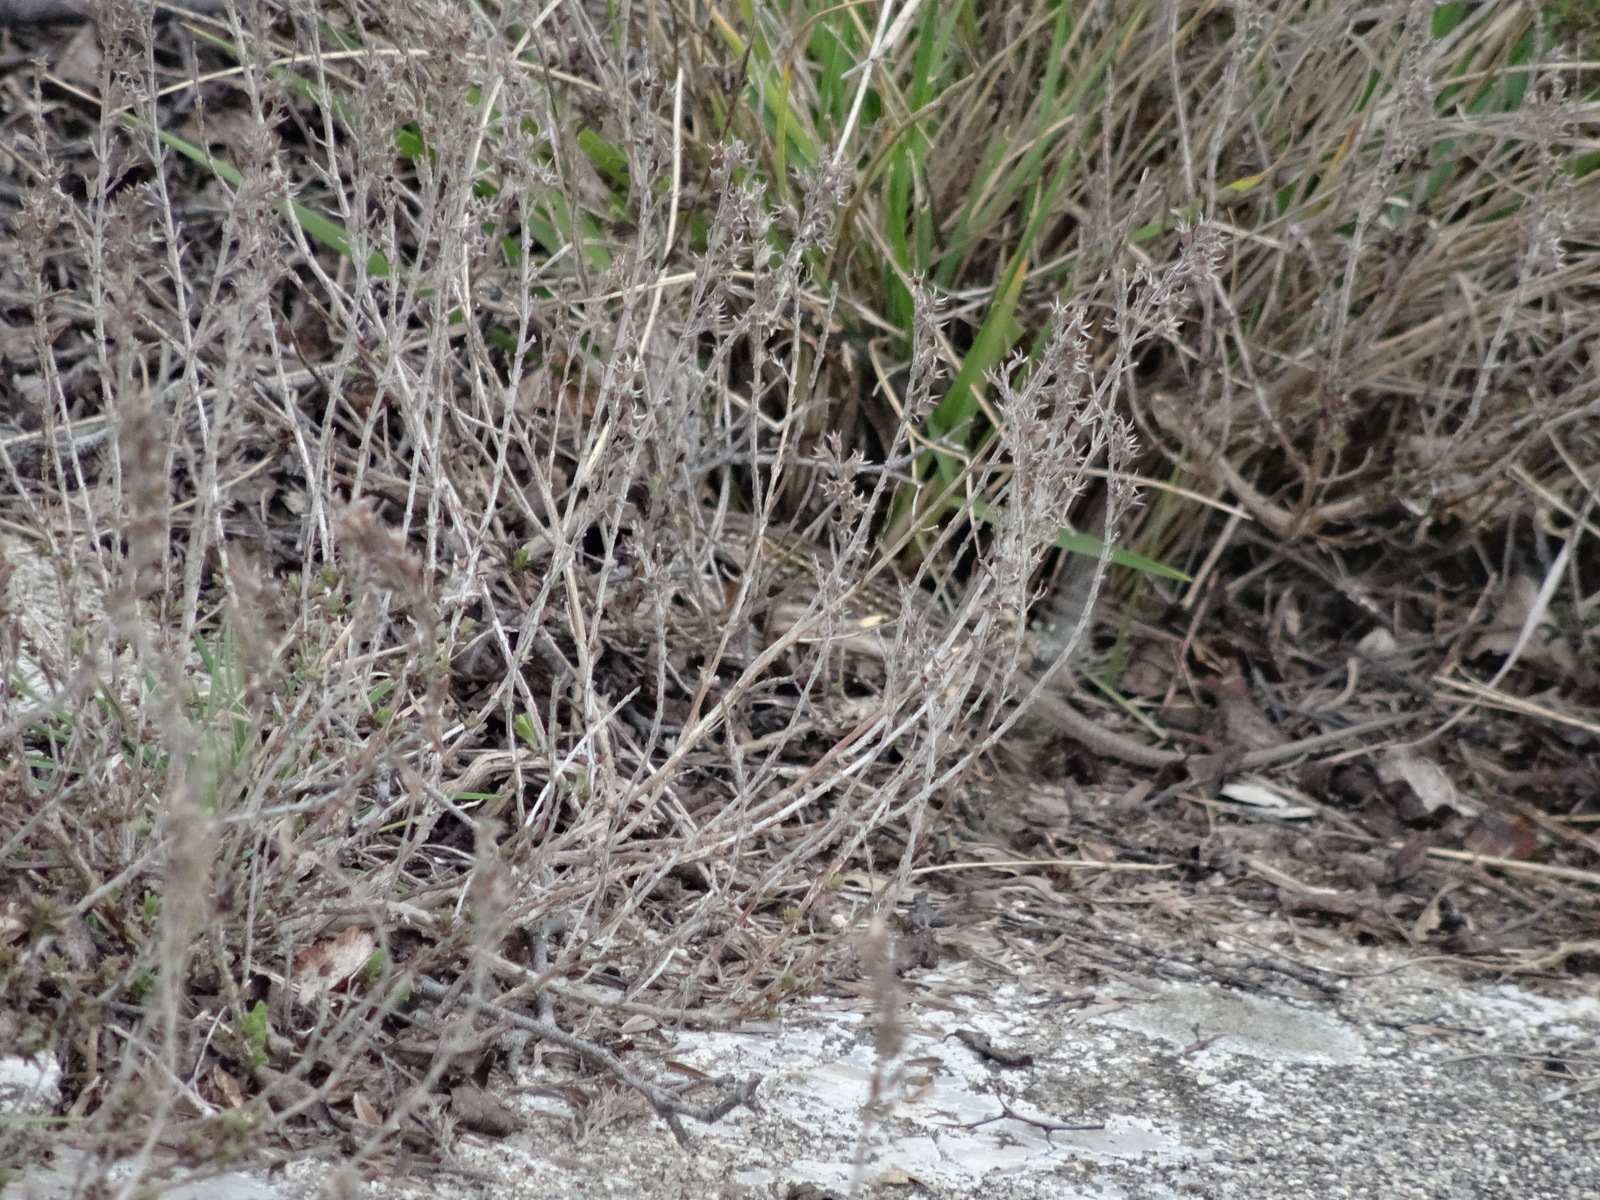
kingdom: Animalia
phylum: Chordata
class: Squamata
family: Lacertidae
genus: Psammodromus
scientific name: Psammodromus edwarsianus
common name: East iberian psammodromus
